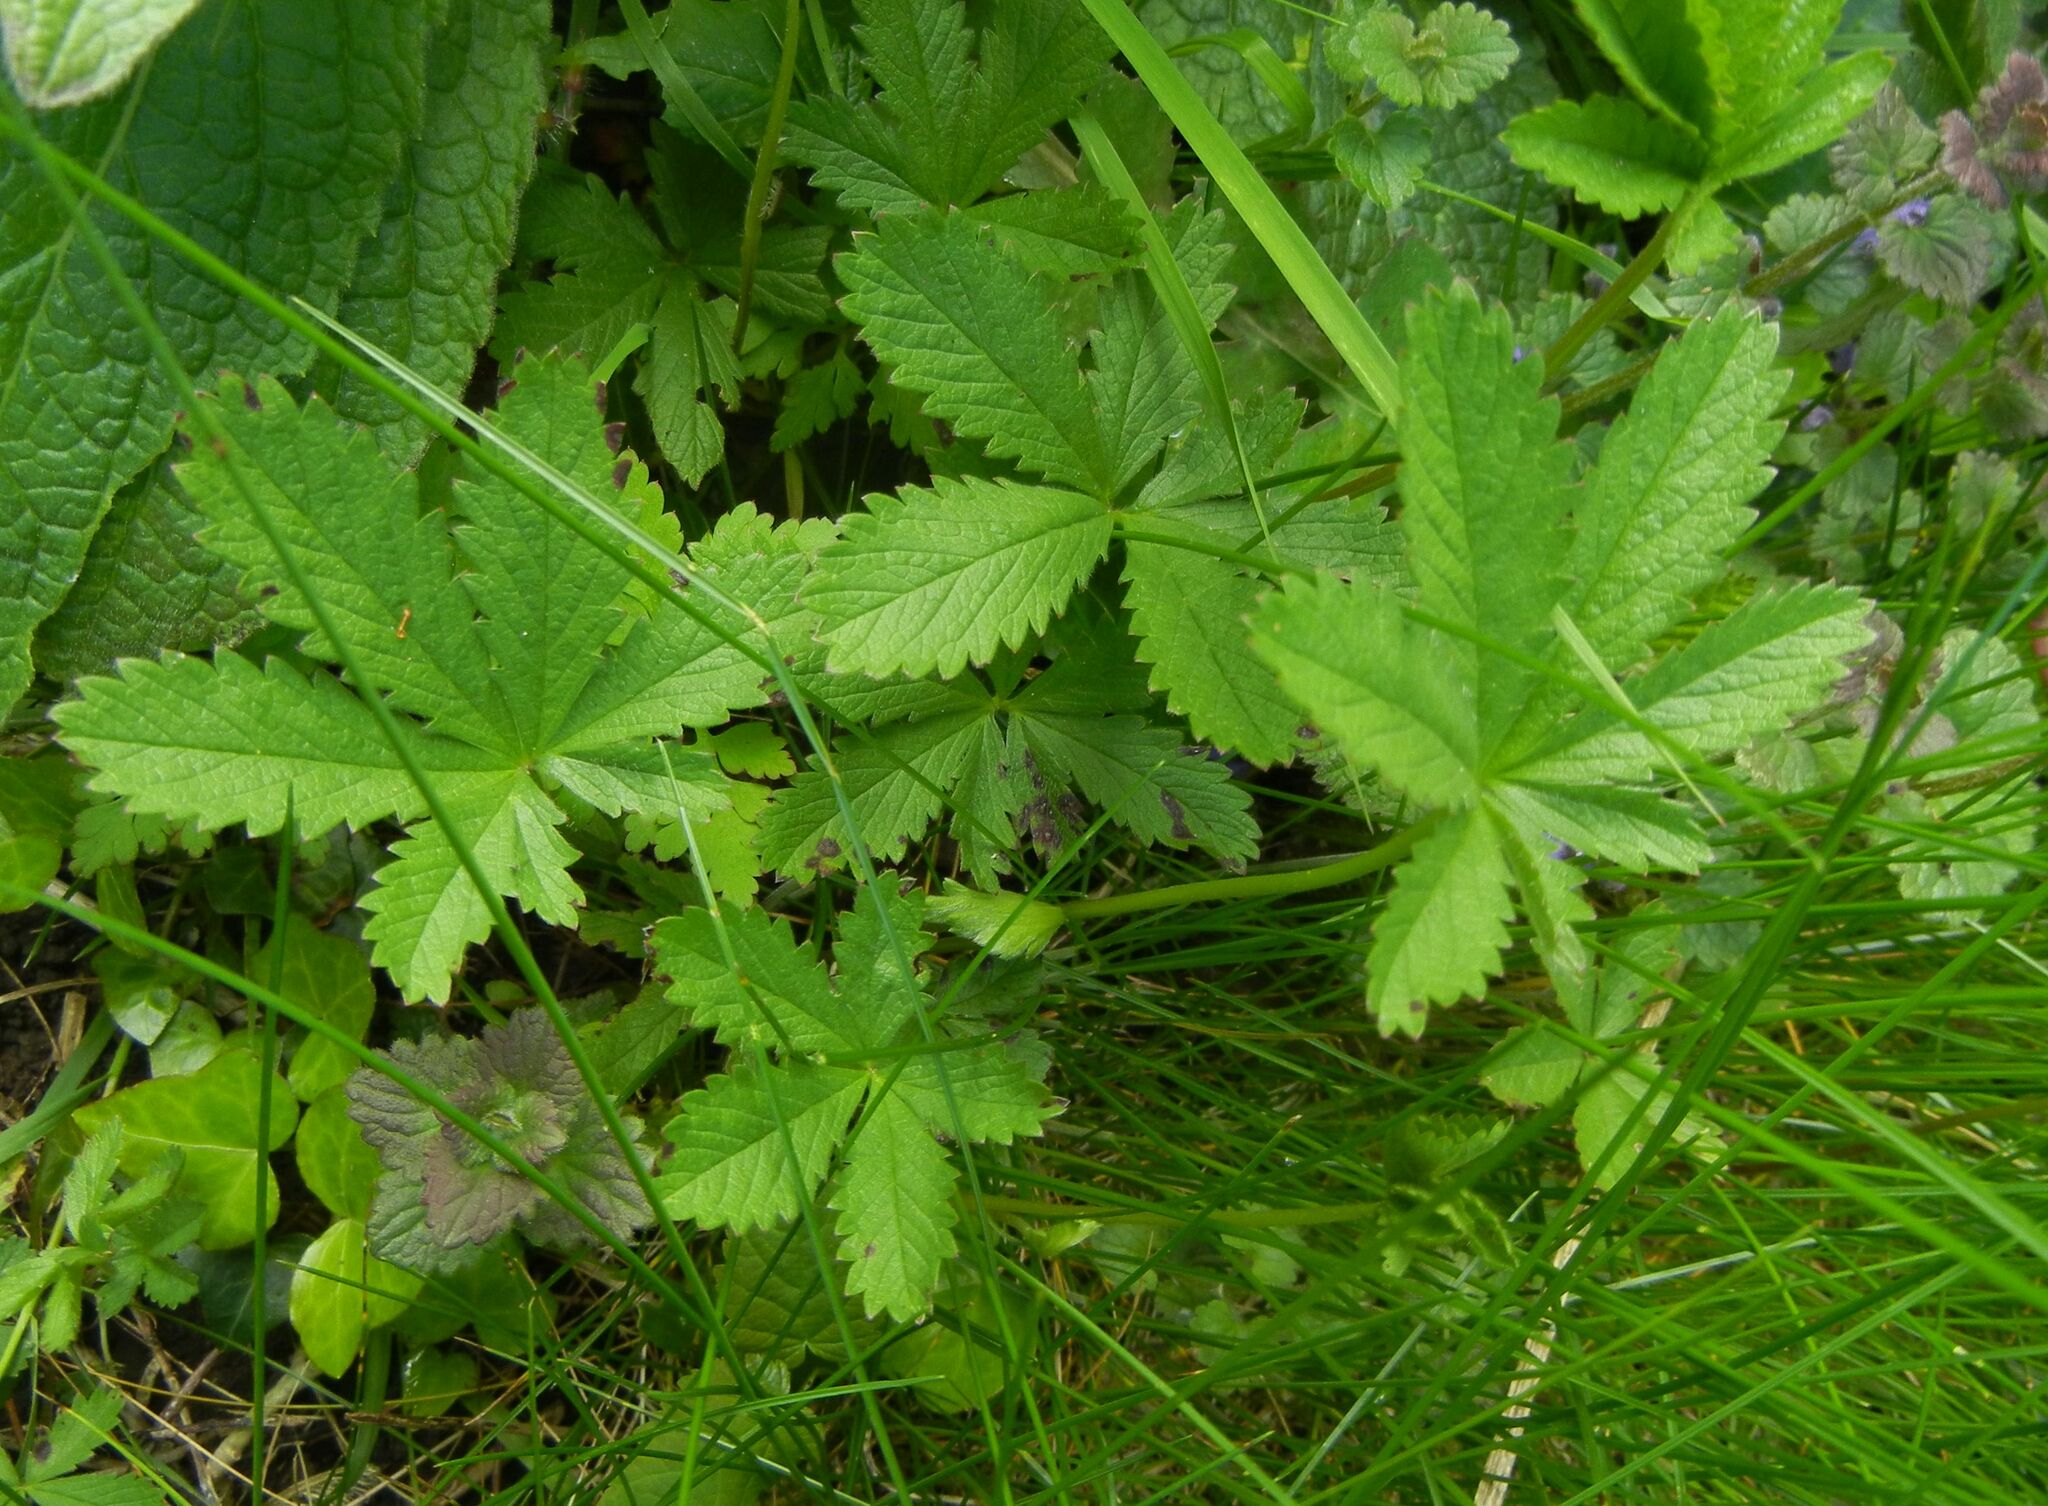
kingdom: Plantae
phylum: Tracheophyta
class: Magnoliopsida
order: Rosales
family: Rosaceae
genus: Potentilla
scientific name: Potentilla reptans
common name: Creeping cinquefoil
